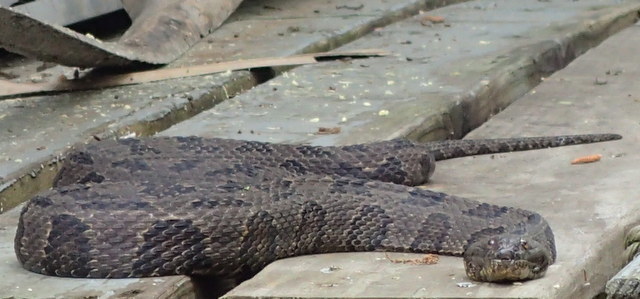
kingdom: Animalia
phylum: Chordata
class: Squamata
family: Colubridae
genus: Nerodia
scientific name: Nerodia taxispilota
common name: Brown water snake
